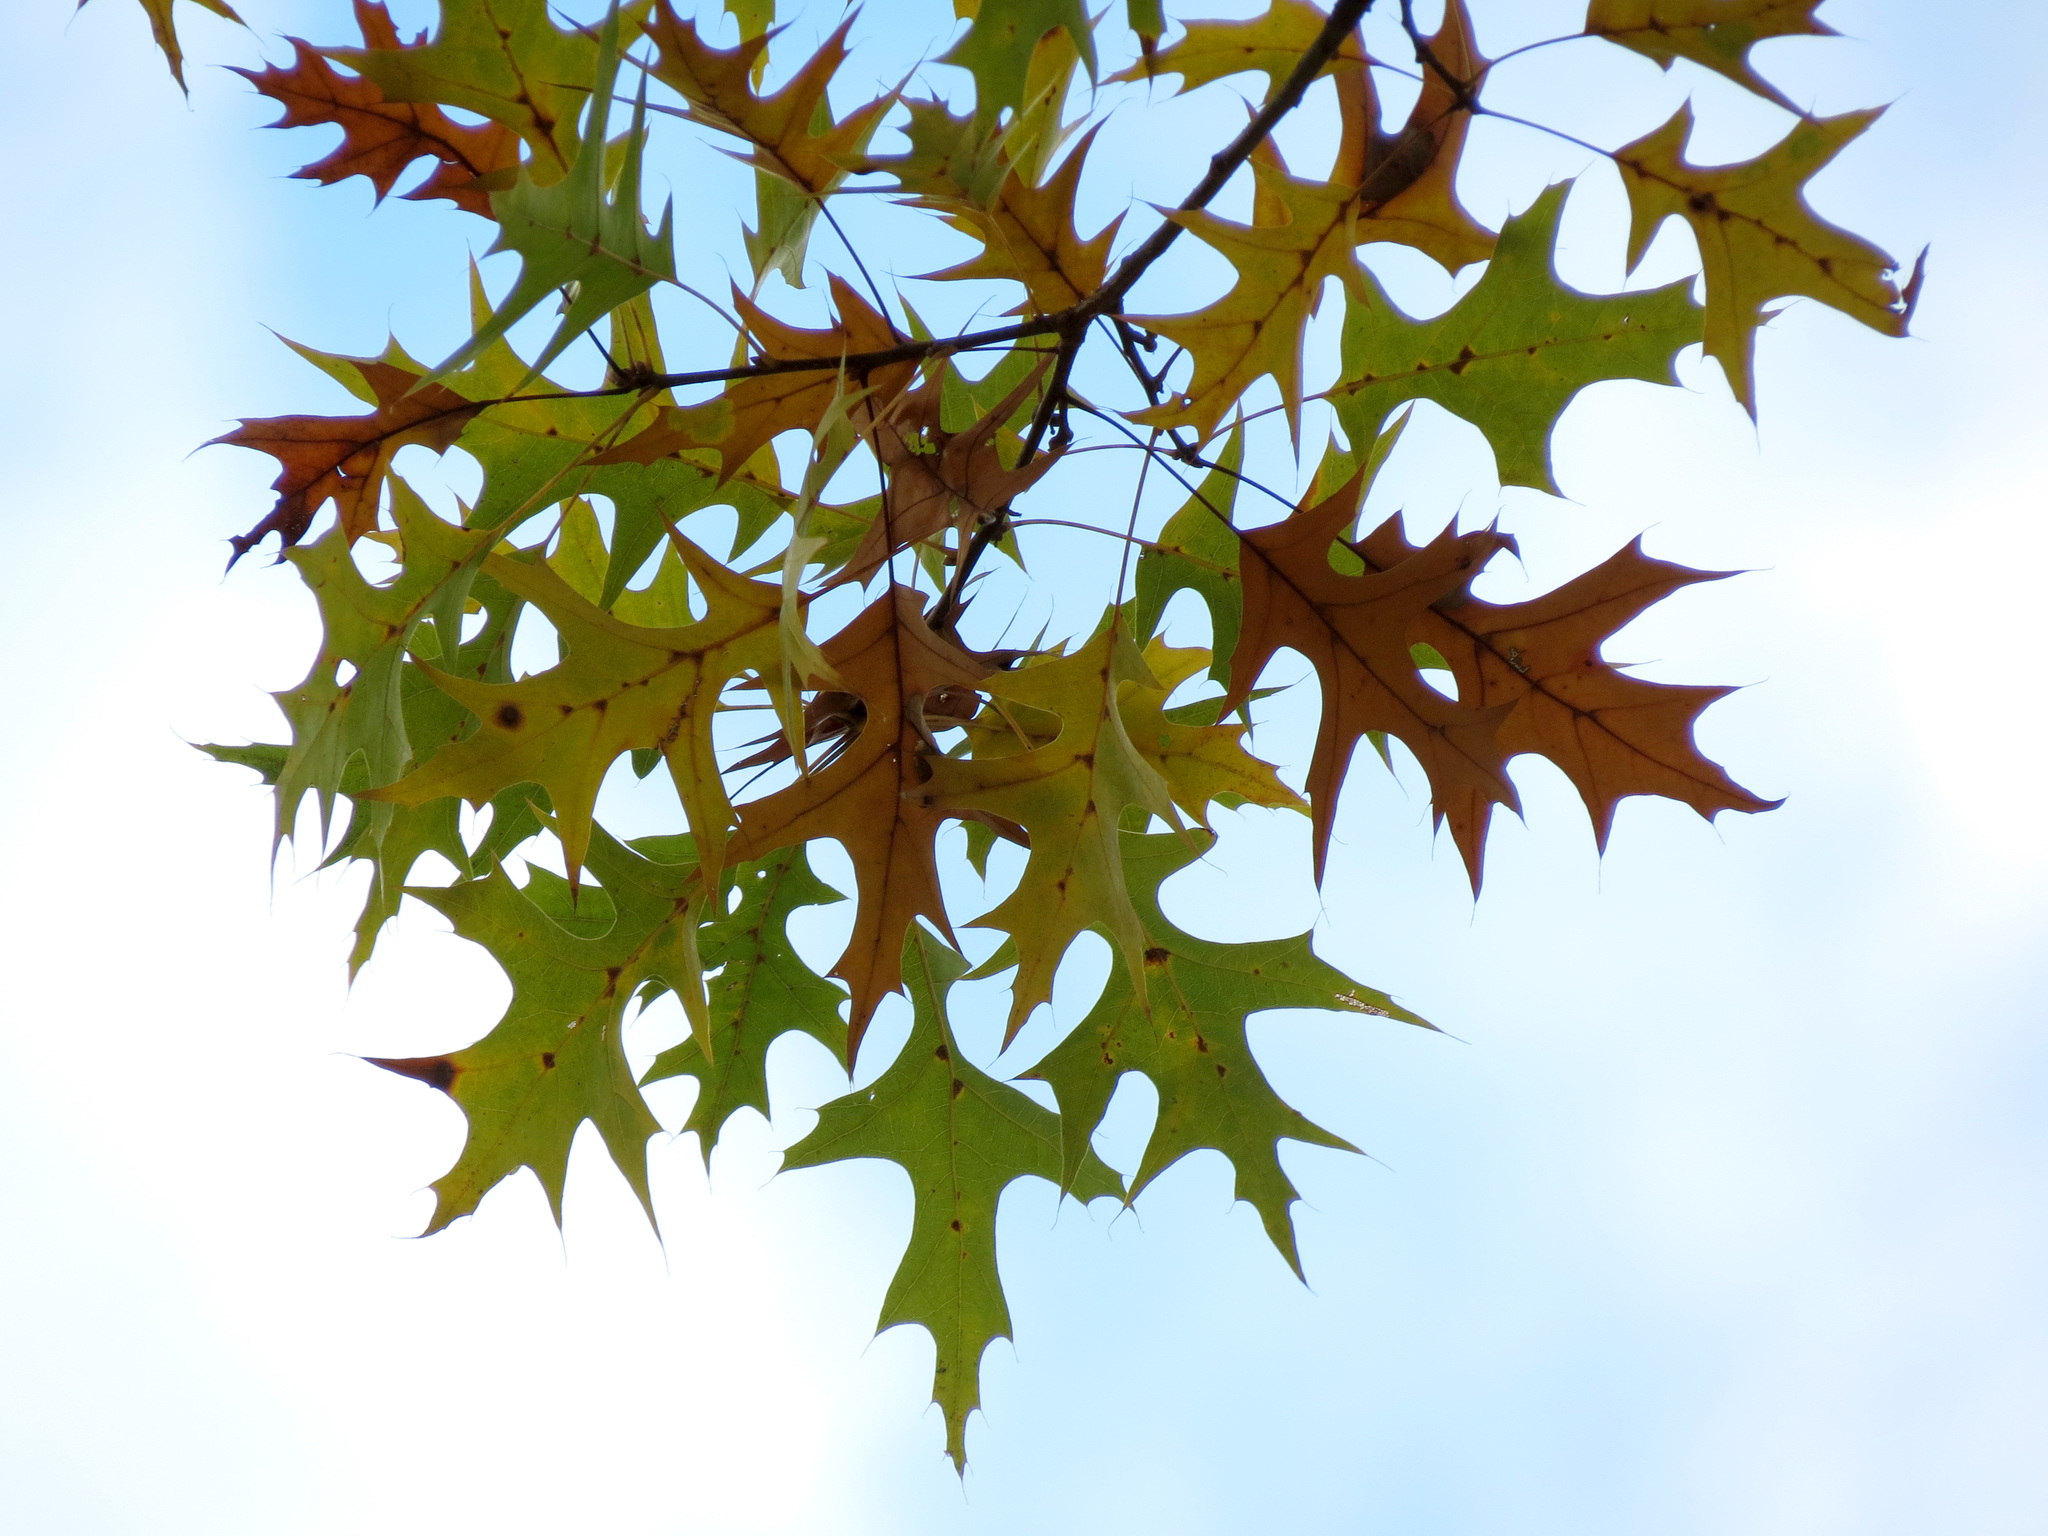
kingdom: Plantae
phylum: Tracheophyta
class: Magnoliopsida
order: Fagales
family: Fagaceae
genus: Quercus
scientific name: Quercus palustris
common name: Pin oak
